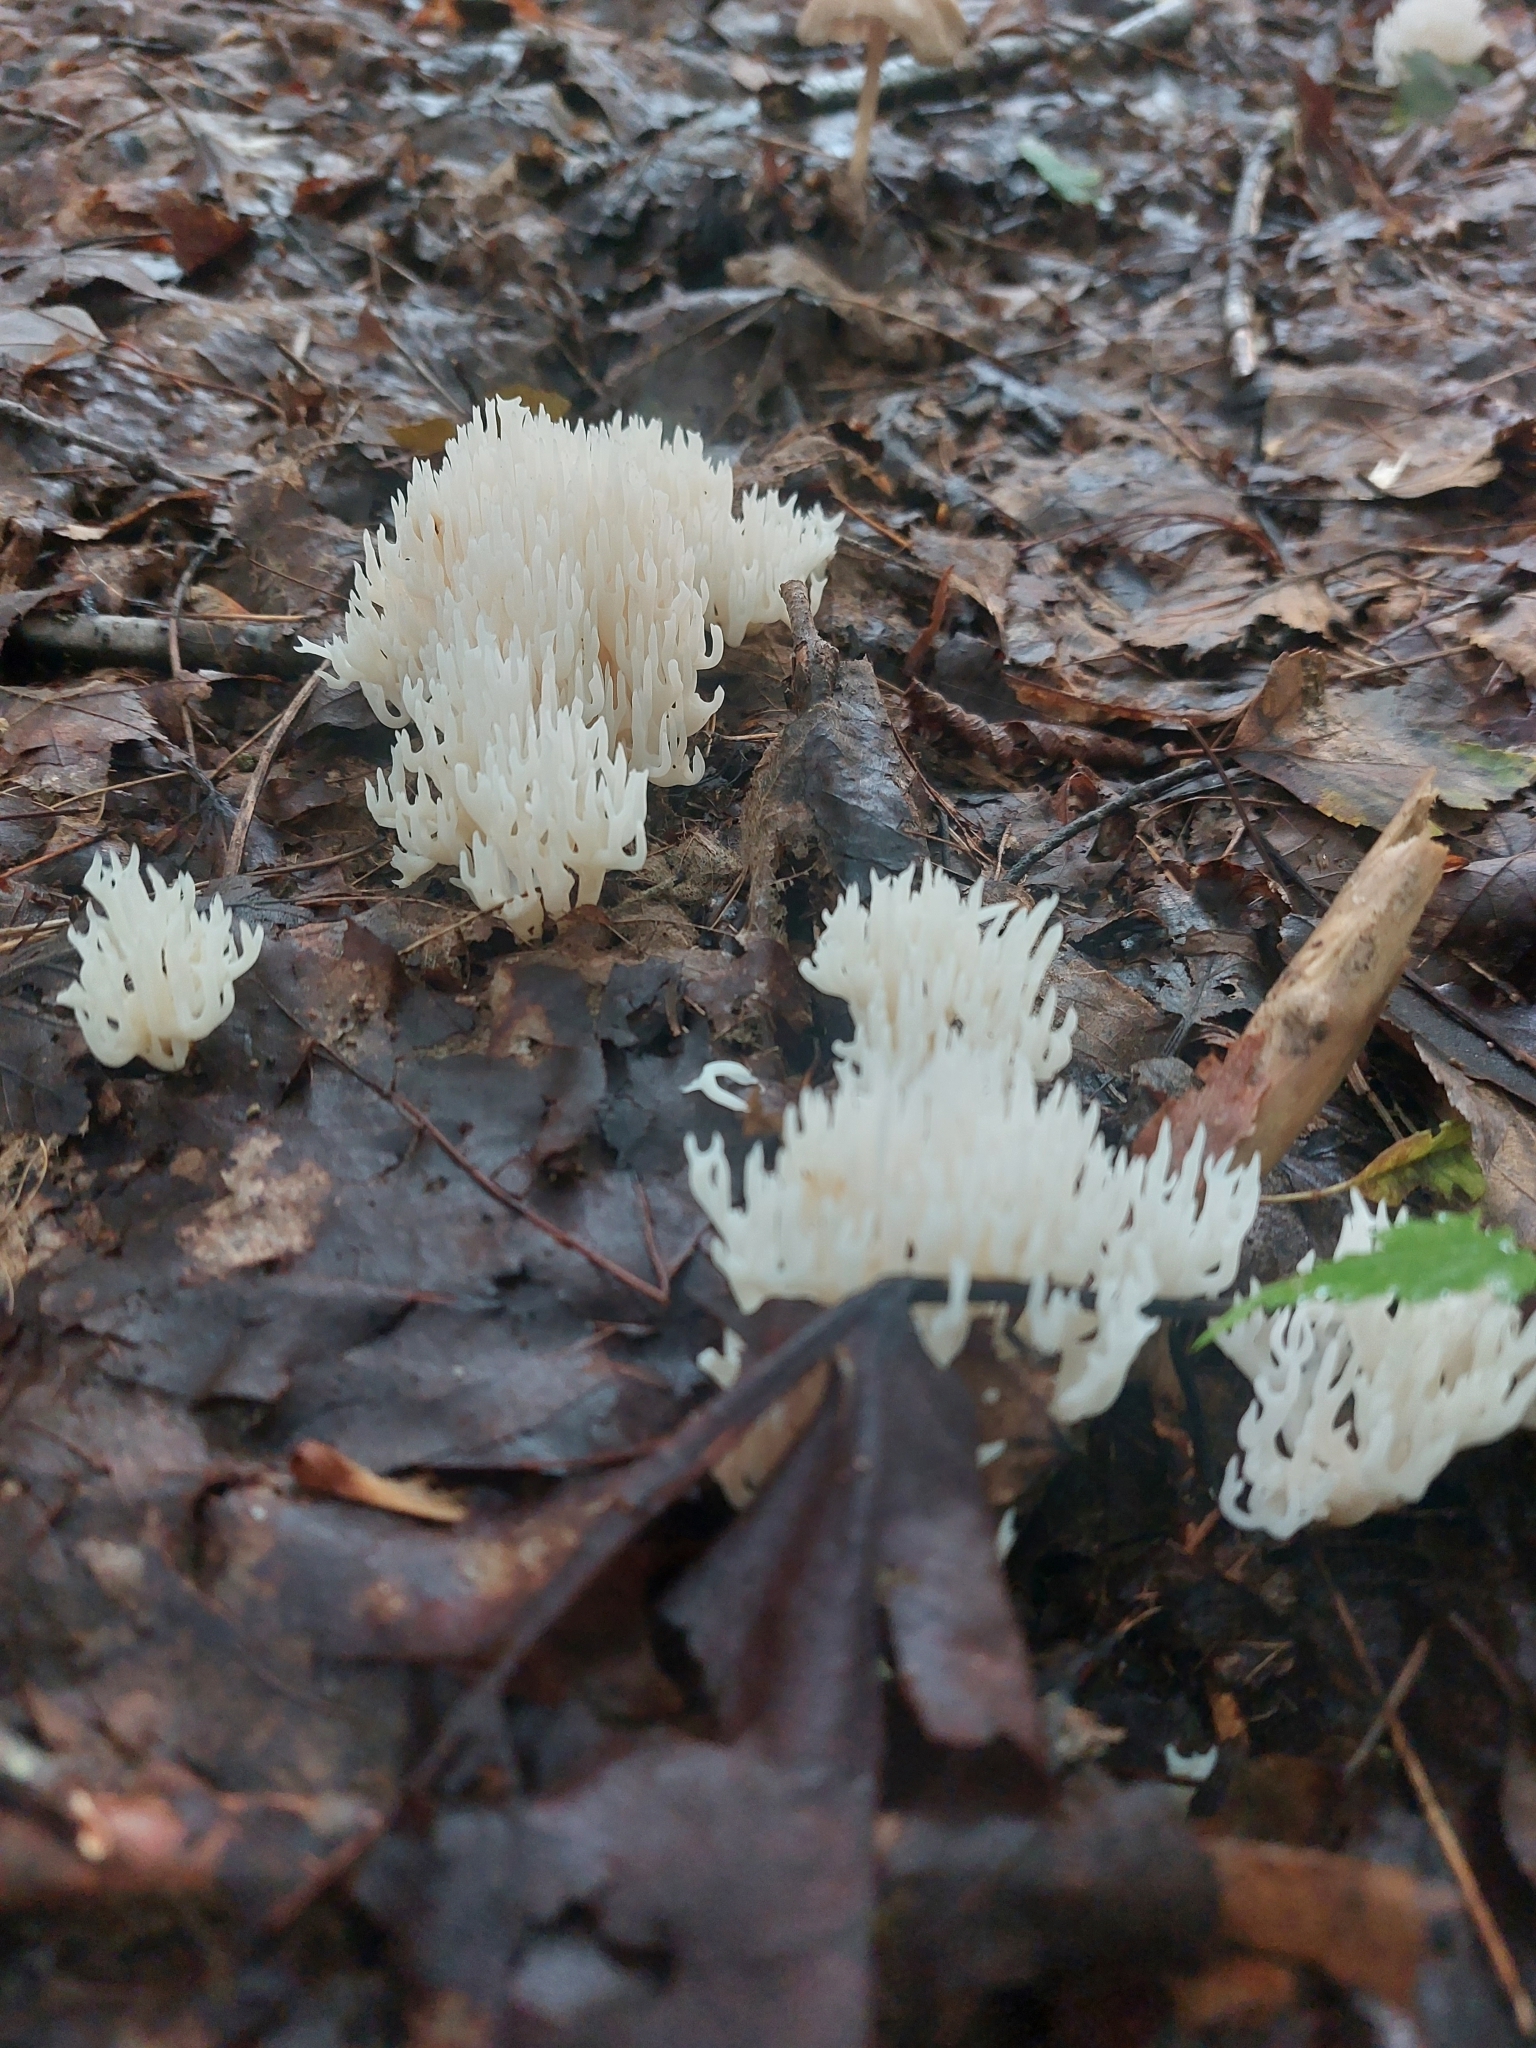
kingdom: Fungi
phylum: Basidiomycota
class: Agaricomycetes
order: Agaricales
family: Clavariaceae
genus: Ramariopsis
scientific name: Ramariopsis kunzei
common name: Ivory coral
